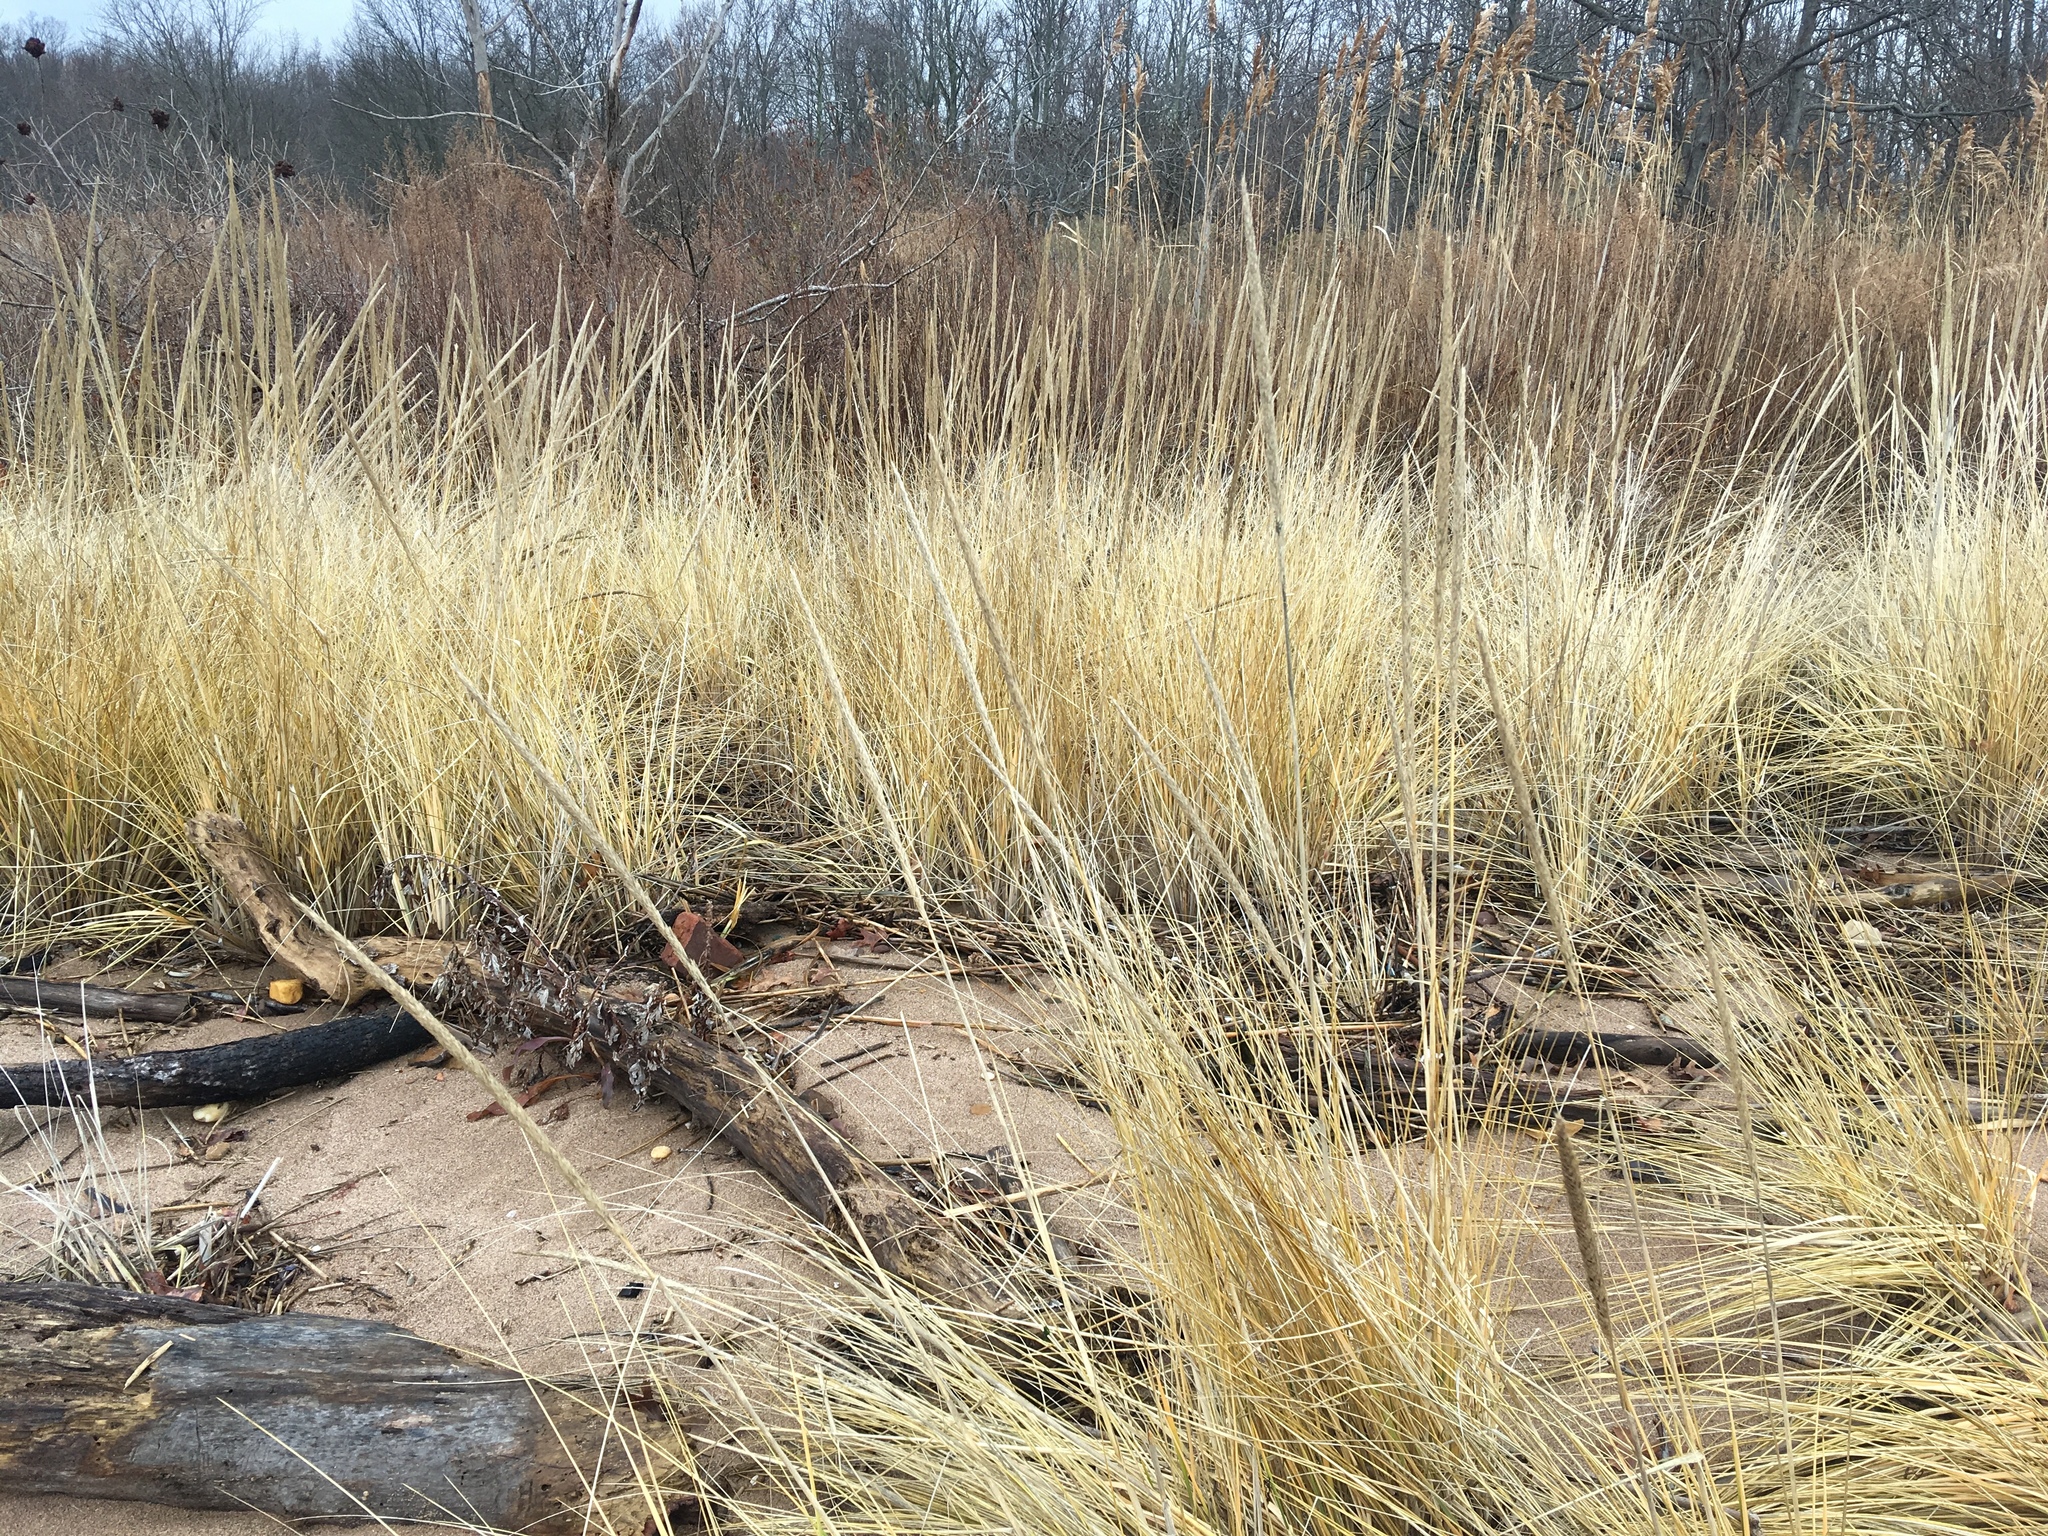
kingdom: Plantae
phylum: Tracheophyta
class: Liliopsida
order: Poales
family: Poaceae
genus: Calamagrostis
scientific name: Calamagrostis breviligulata
